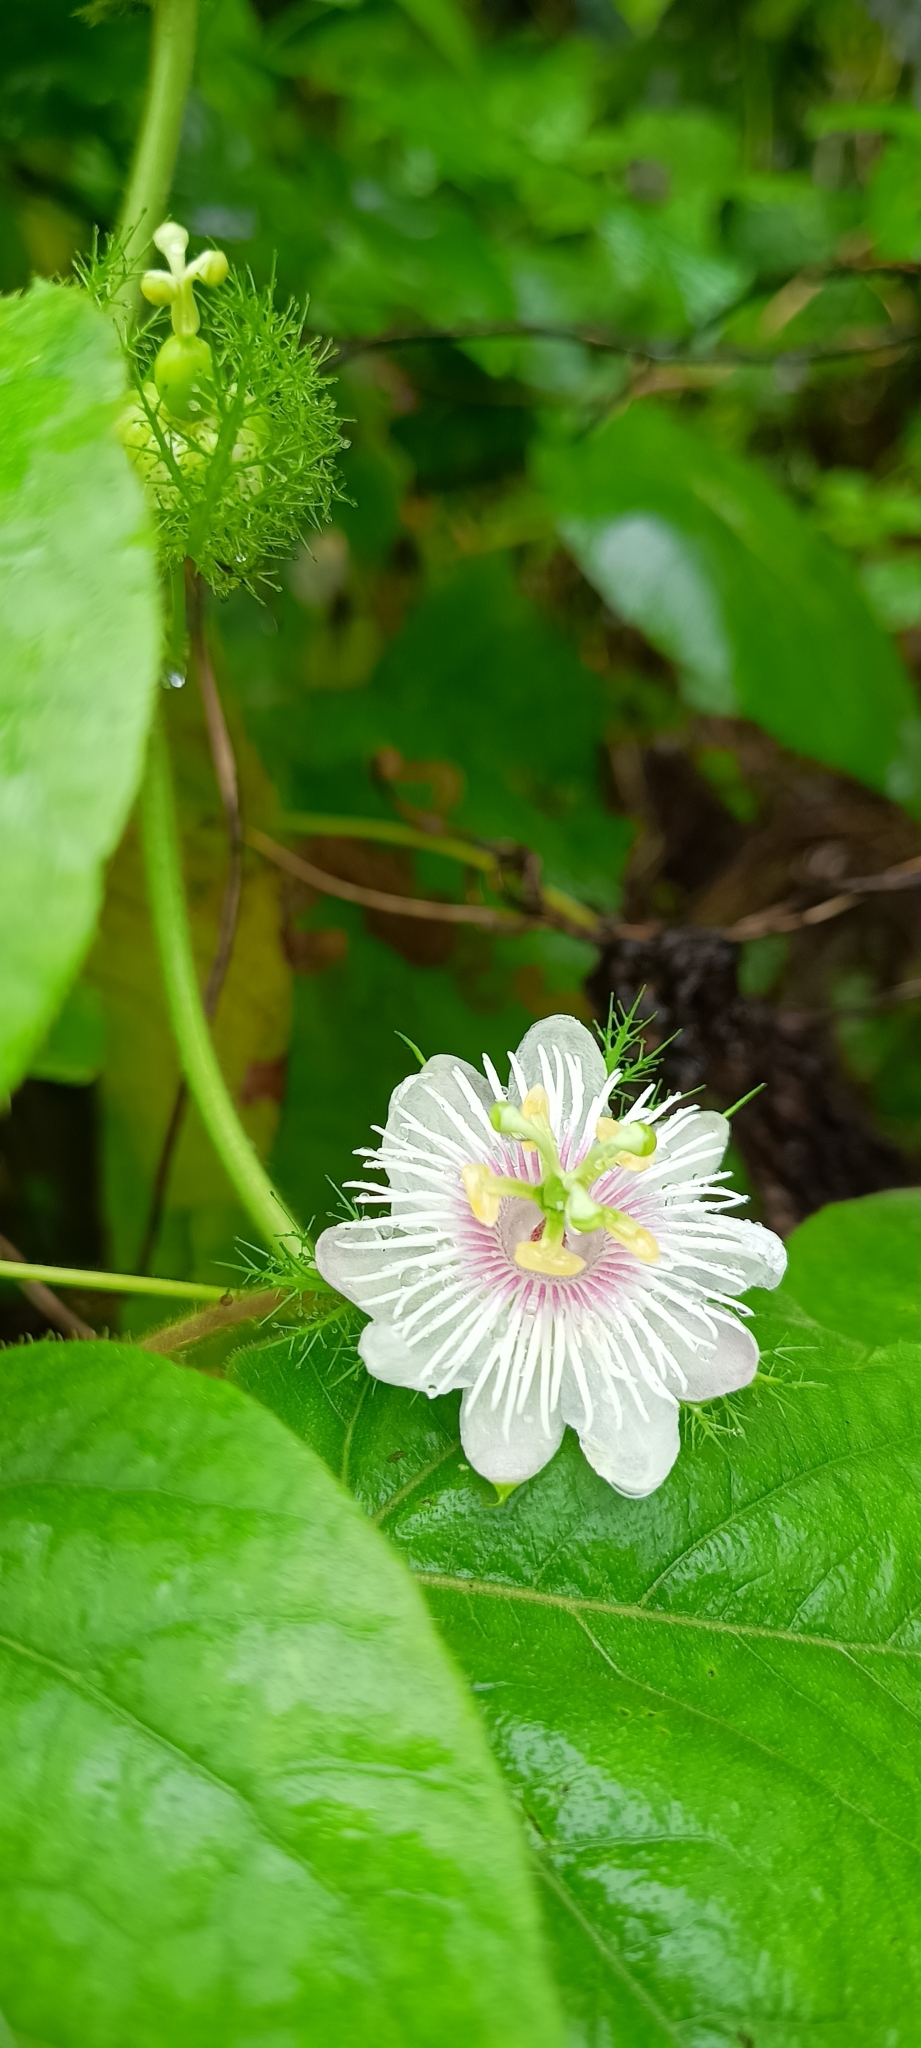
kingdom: Plantae
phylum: Tracheophyta
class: Magnoliopsida
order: Malpighiales
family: Passifloraceae
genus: Passiflora
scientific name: Passiflora vesicaria
